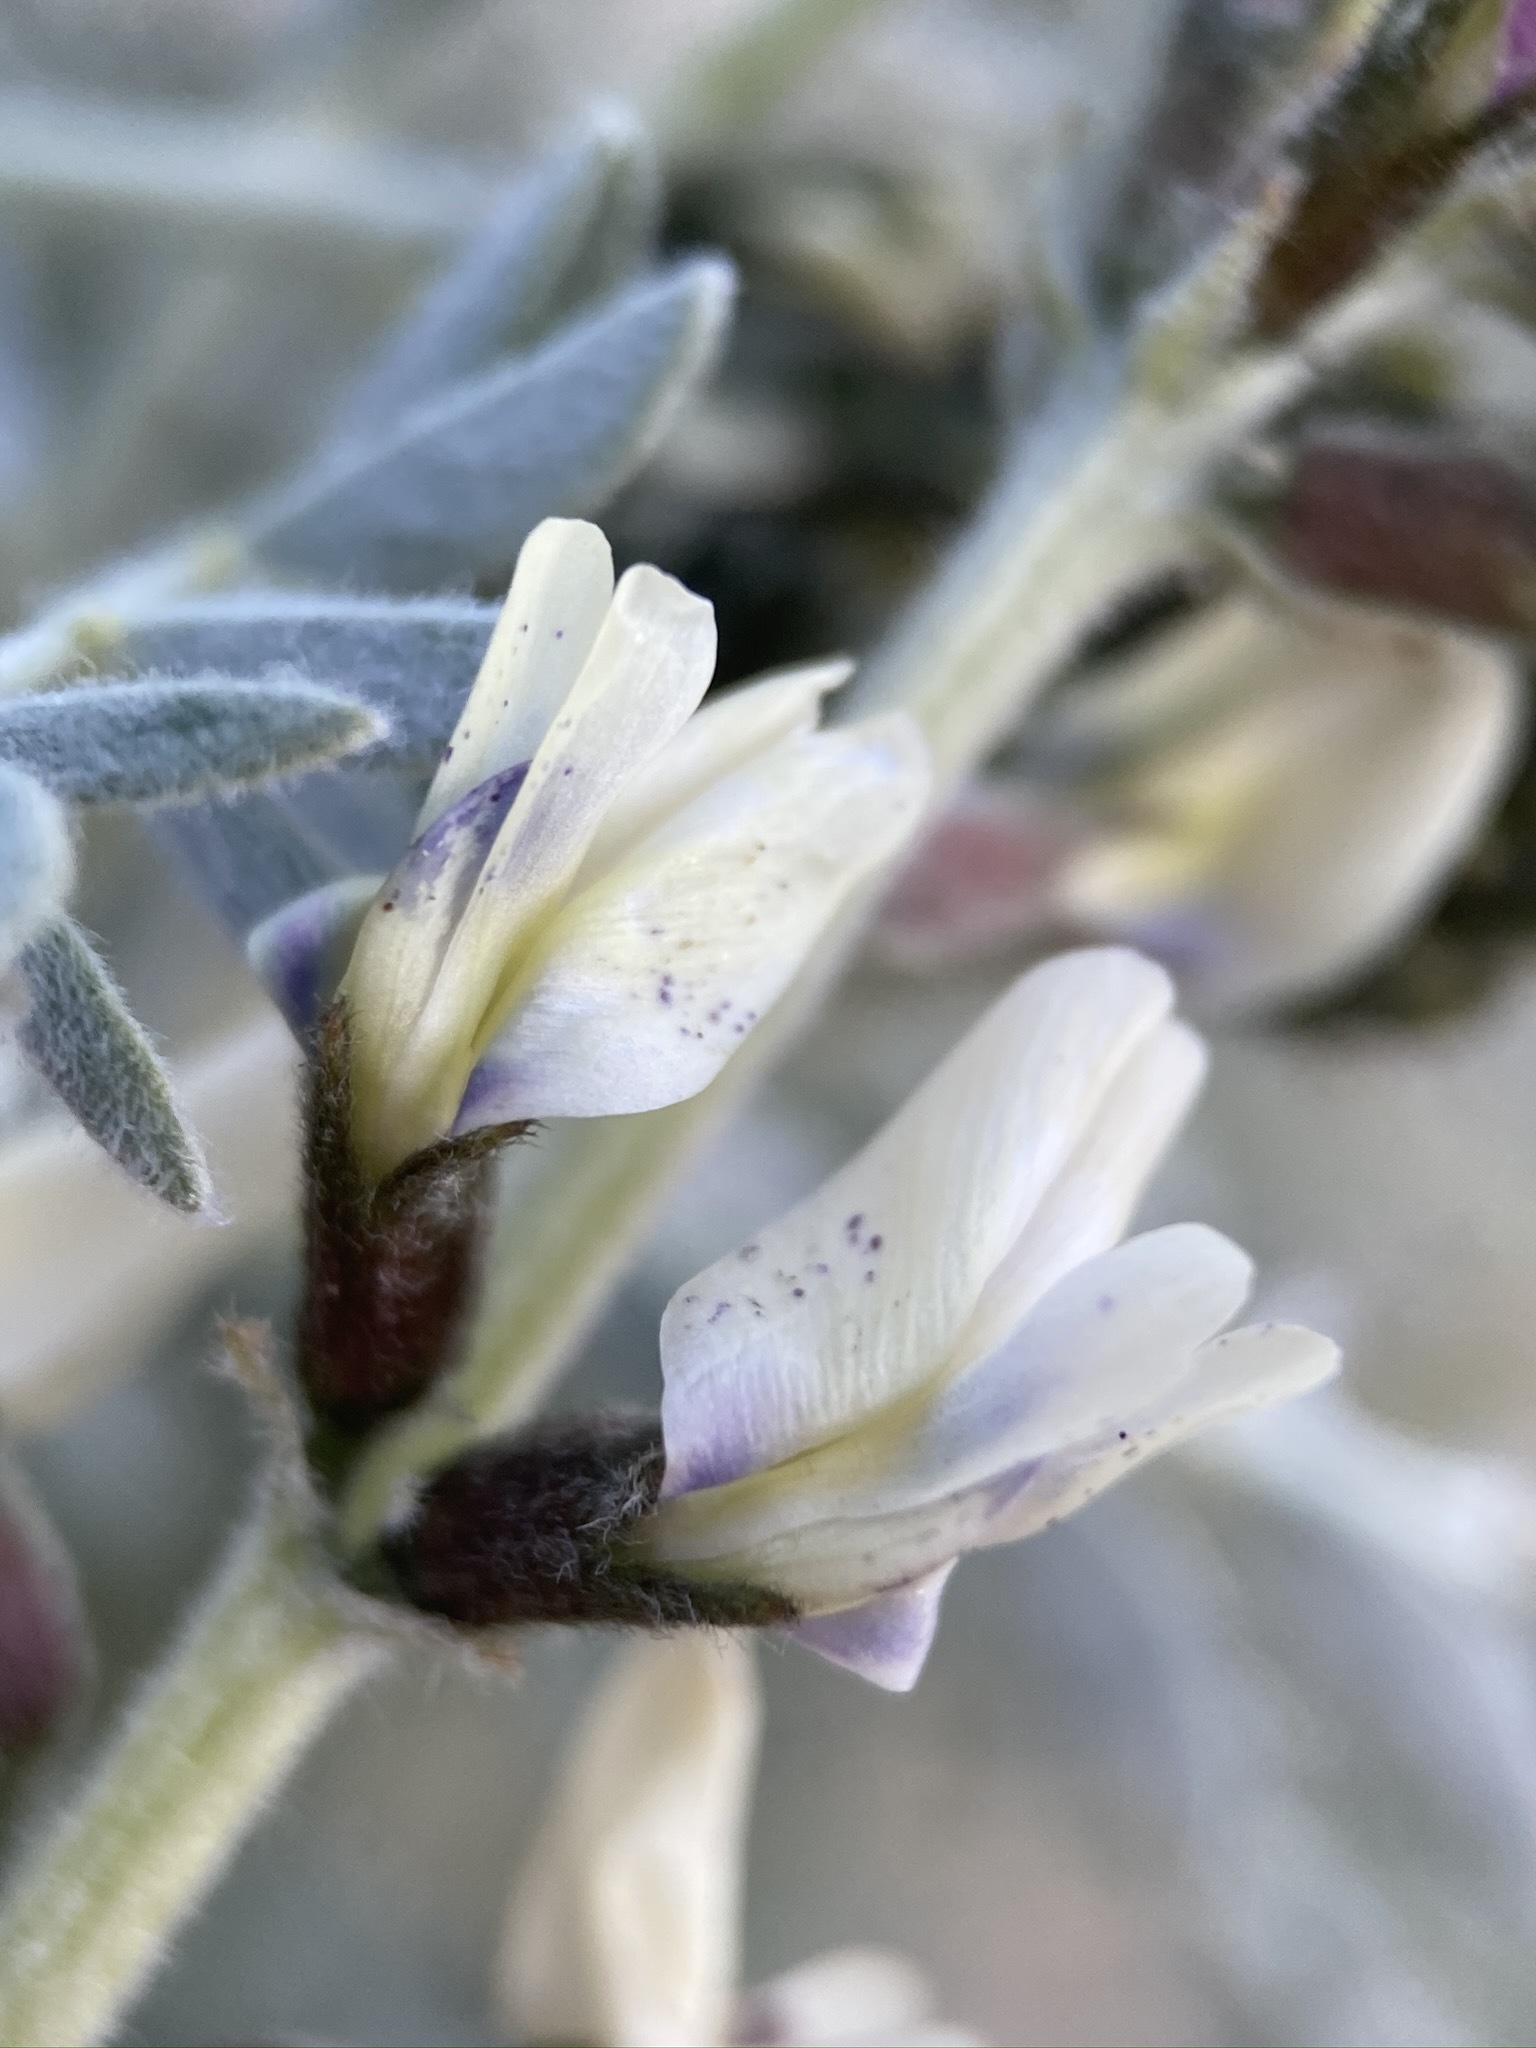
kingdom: Plantae
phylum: Tracheophyta
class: Magnoliopsida
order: Fabales
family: Fabaceae
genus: Astragalus
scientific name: Astragalus lentiginosus
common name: Freckled milkvetch
